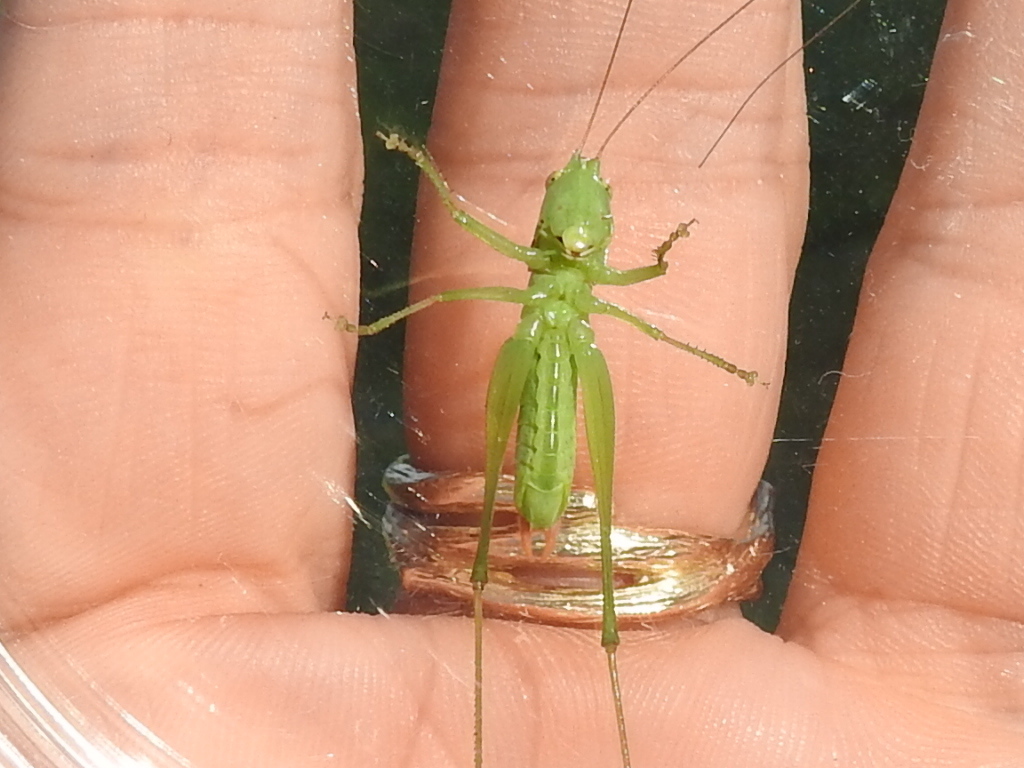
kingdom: Animalia
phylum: Arthropoda
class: Insecta
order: Orthoptera
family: Tettigoniidae
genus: Conocephalus
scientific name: Conocephalus strictus
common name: Straight-lanced katydid
